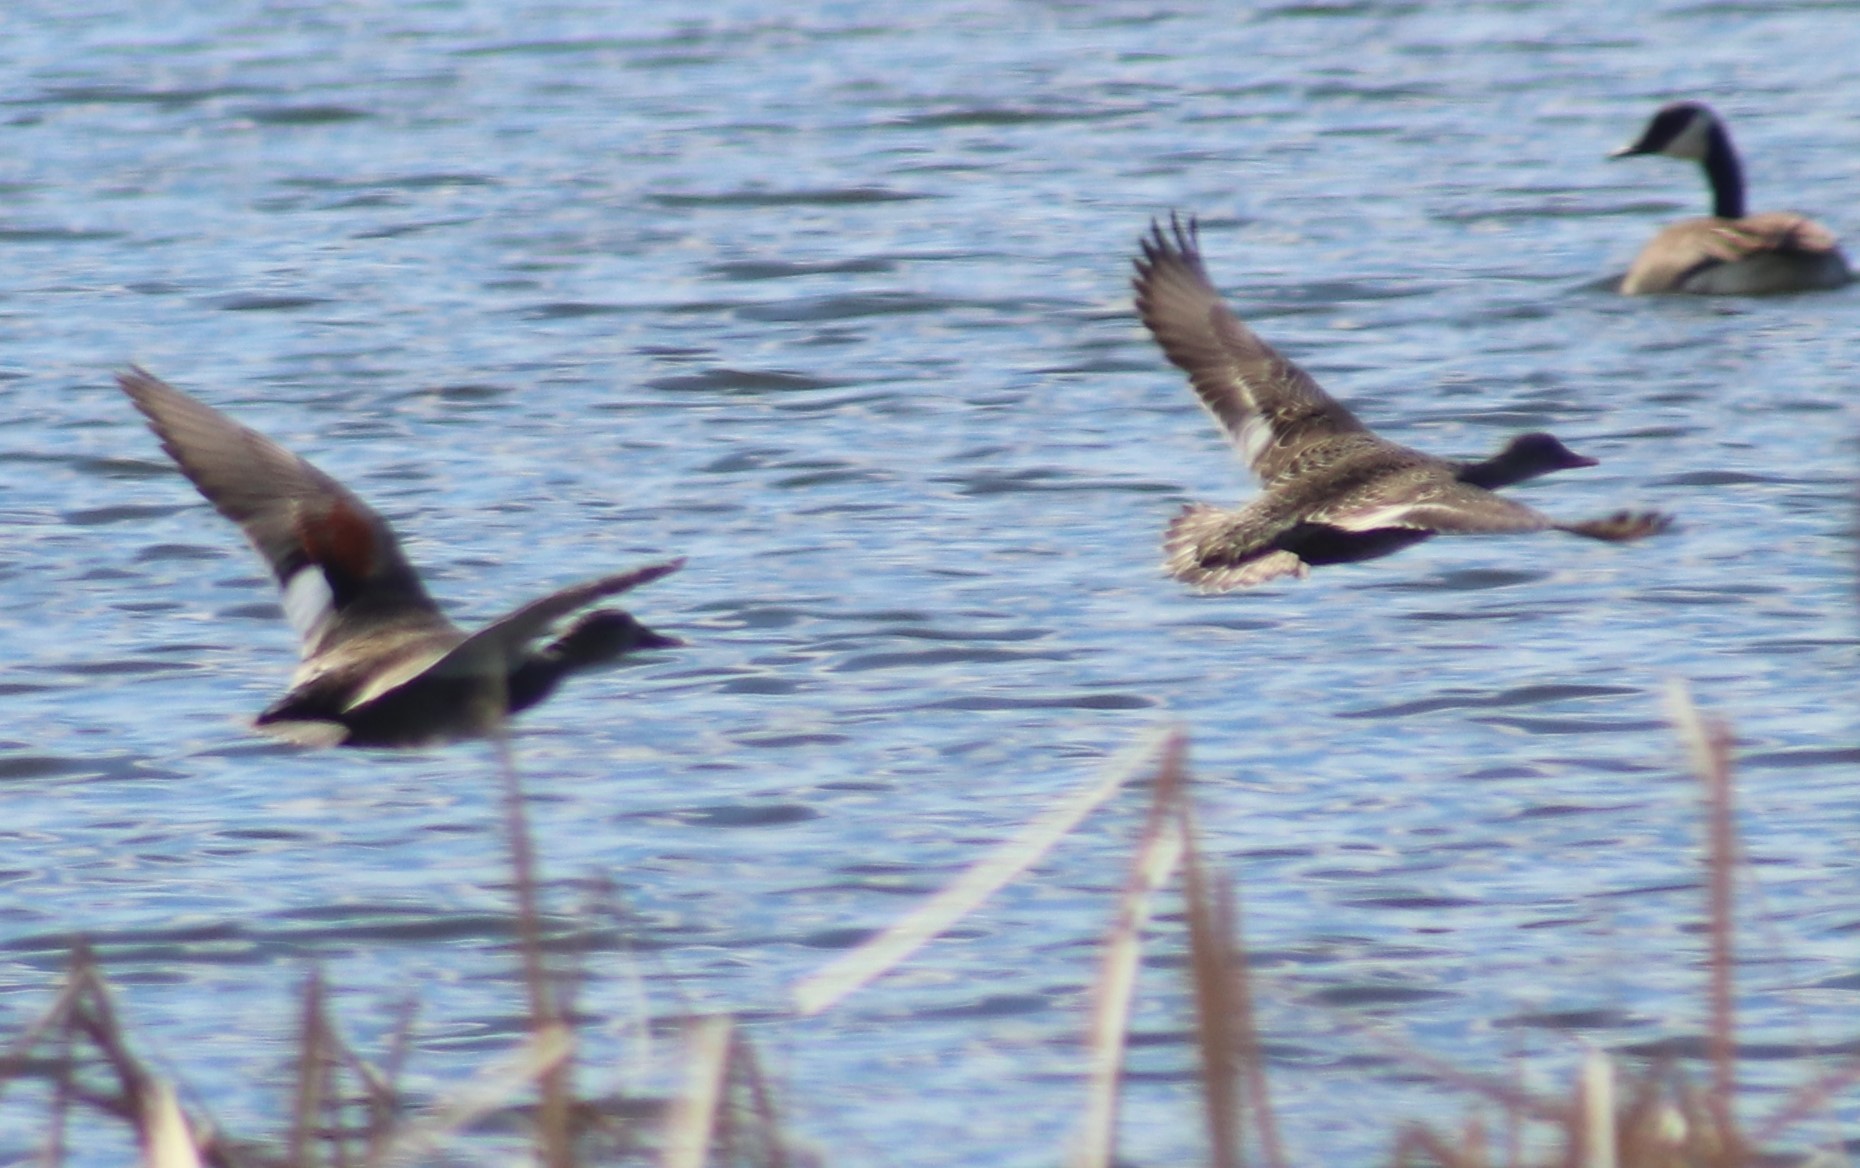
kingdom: Animalia
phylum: Chordata
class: Aves
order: Anseriformes
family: Anatidae
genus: Mareca
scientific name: Mareca strepera
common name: Gadwall
